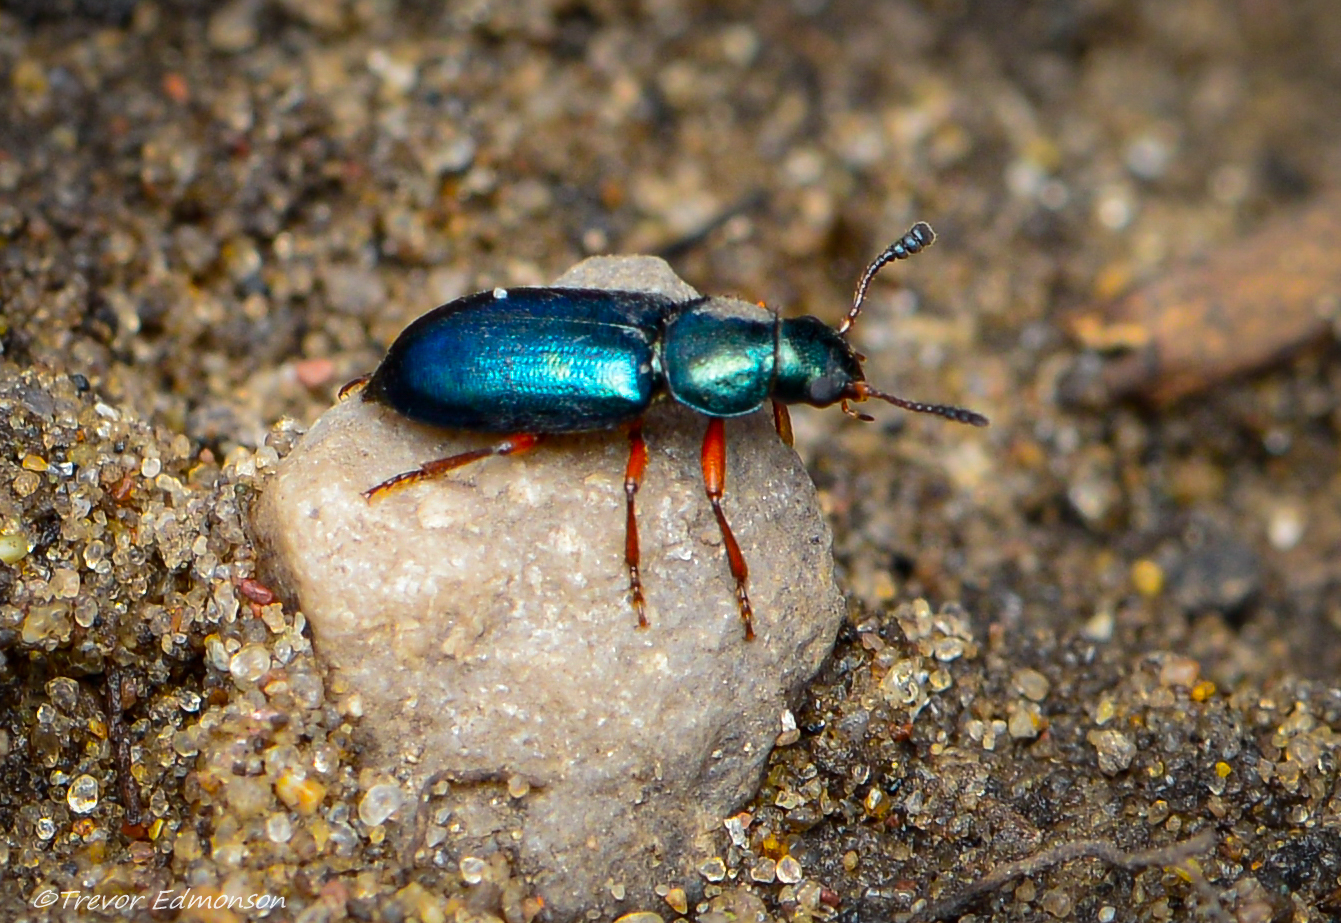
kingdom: Animalia
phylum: Arthropoda
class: Insecta
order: Coleoptera
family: Cleridae
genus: Necrobia
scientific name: Necrobia rufipes
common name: Red-legged ham beetle
